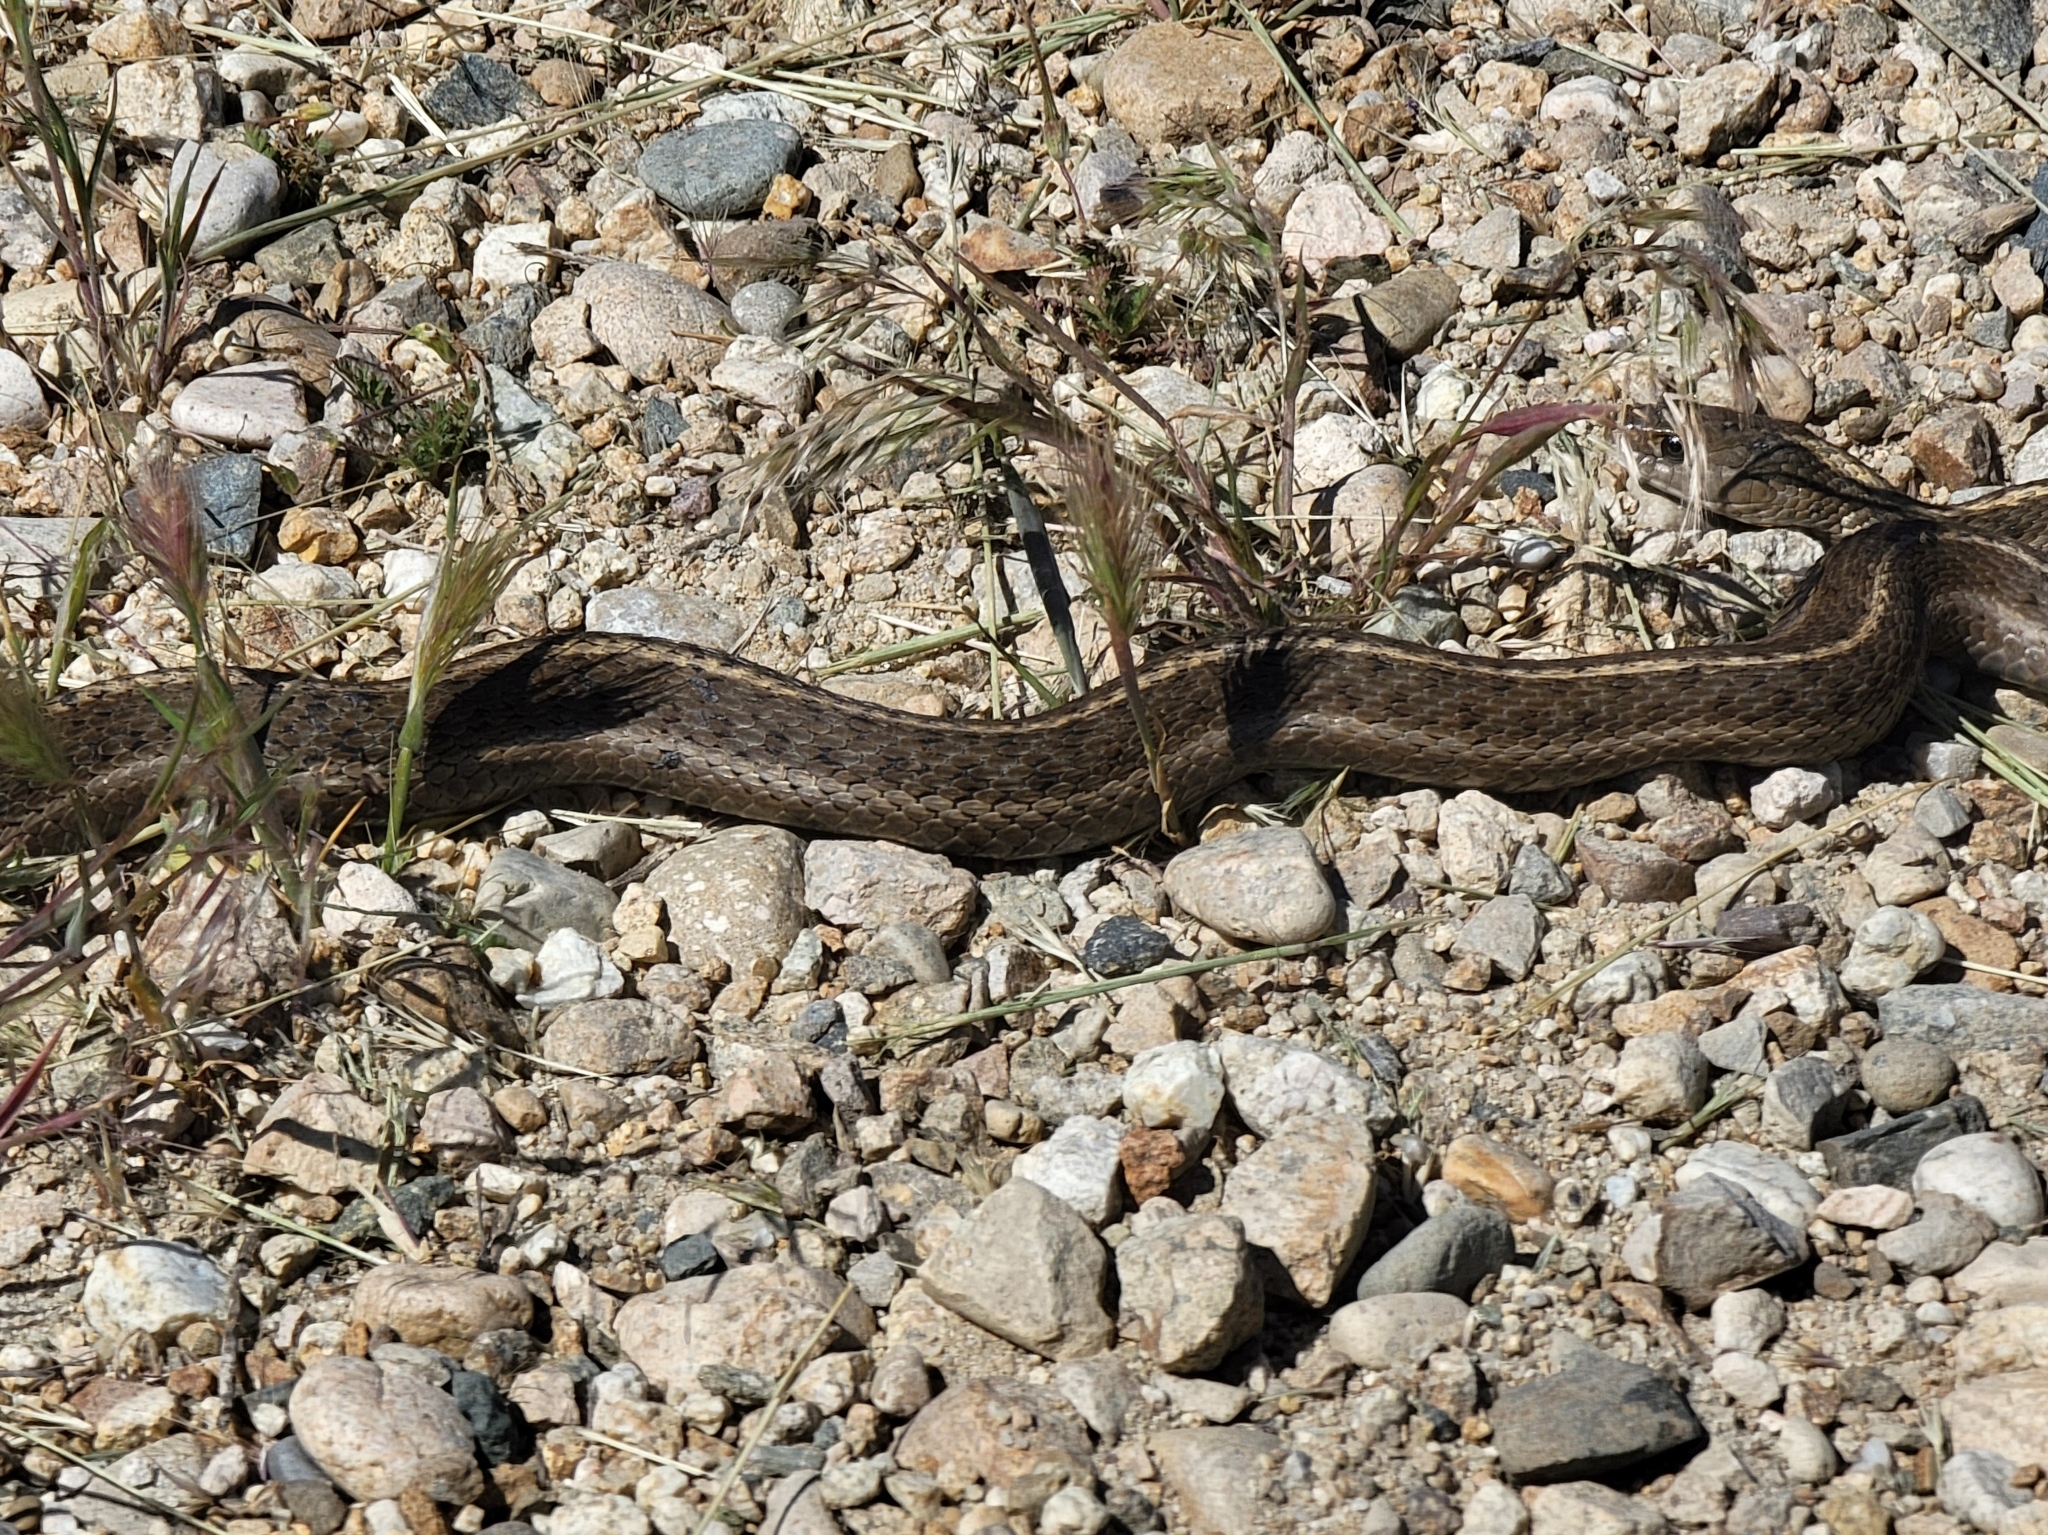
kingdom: Animalia
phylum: Chordata
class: Squamata
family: Colubridae
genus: Thamnophis
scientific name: Thamnophis elegans
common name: Western terrestrial garter snake
